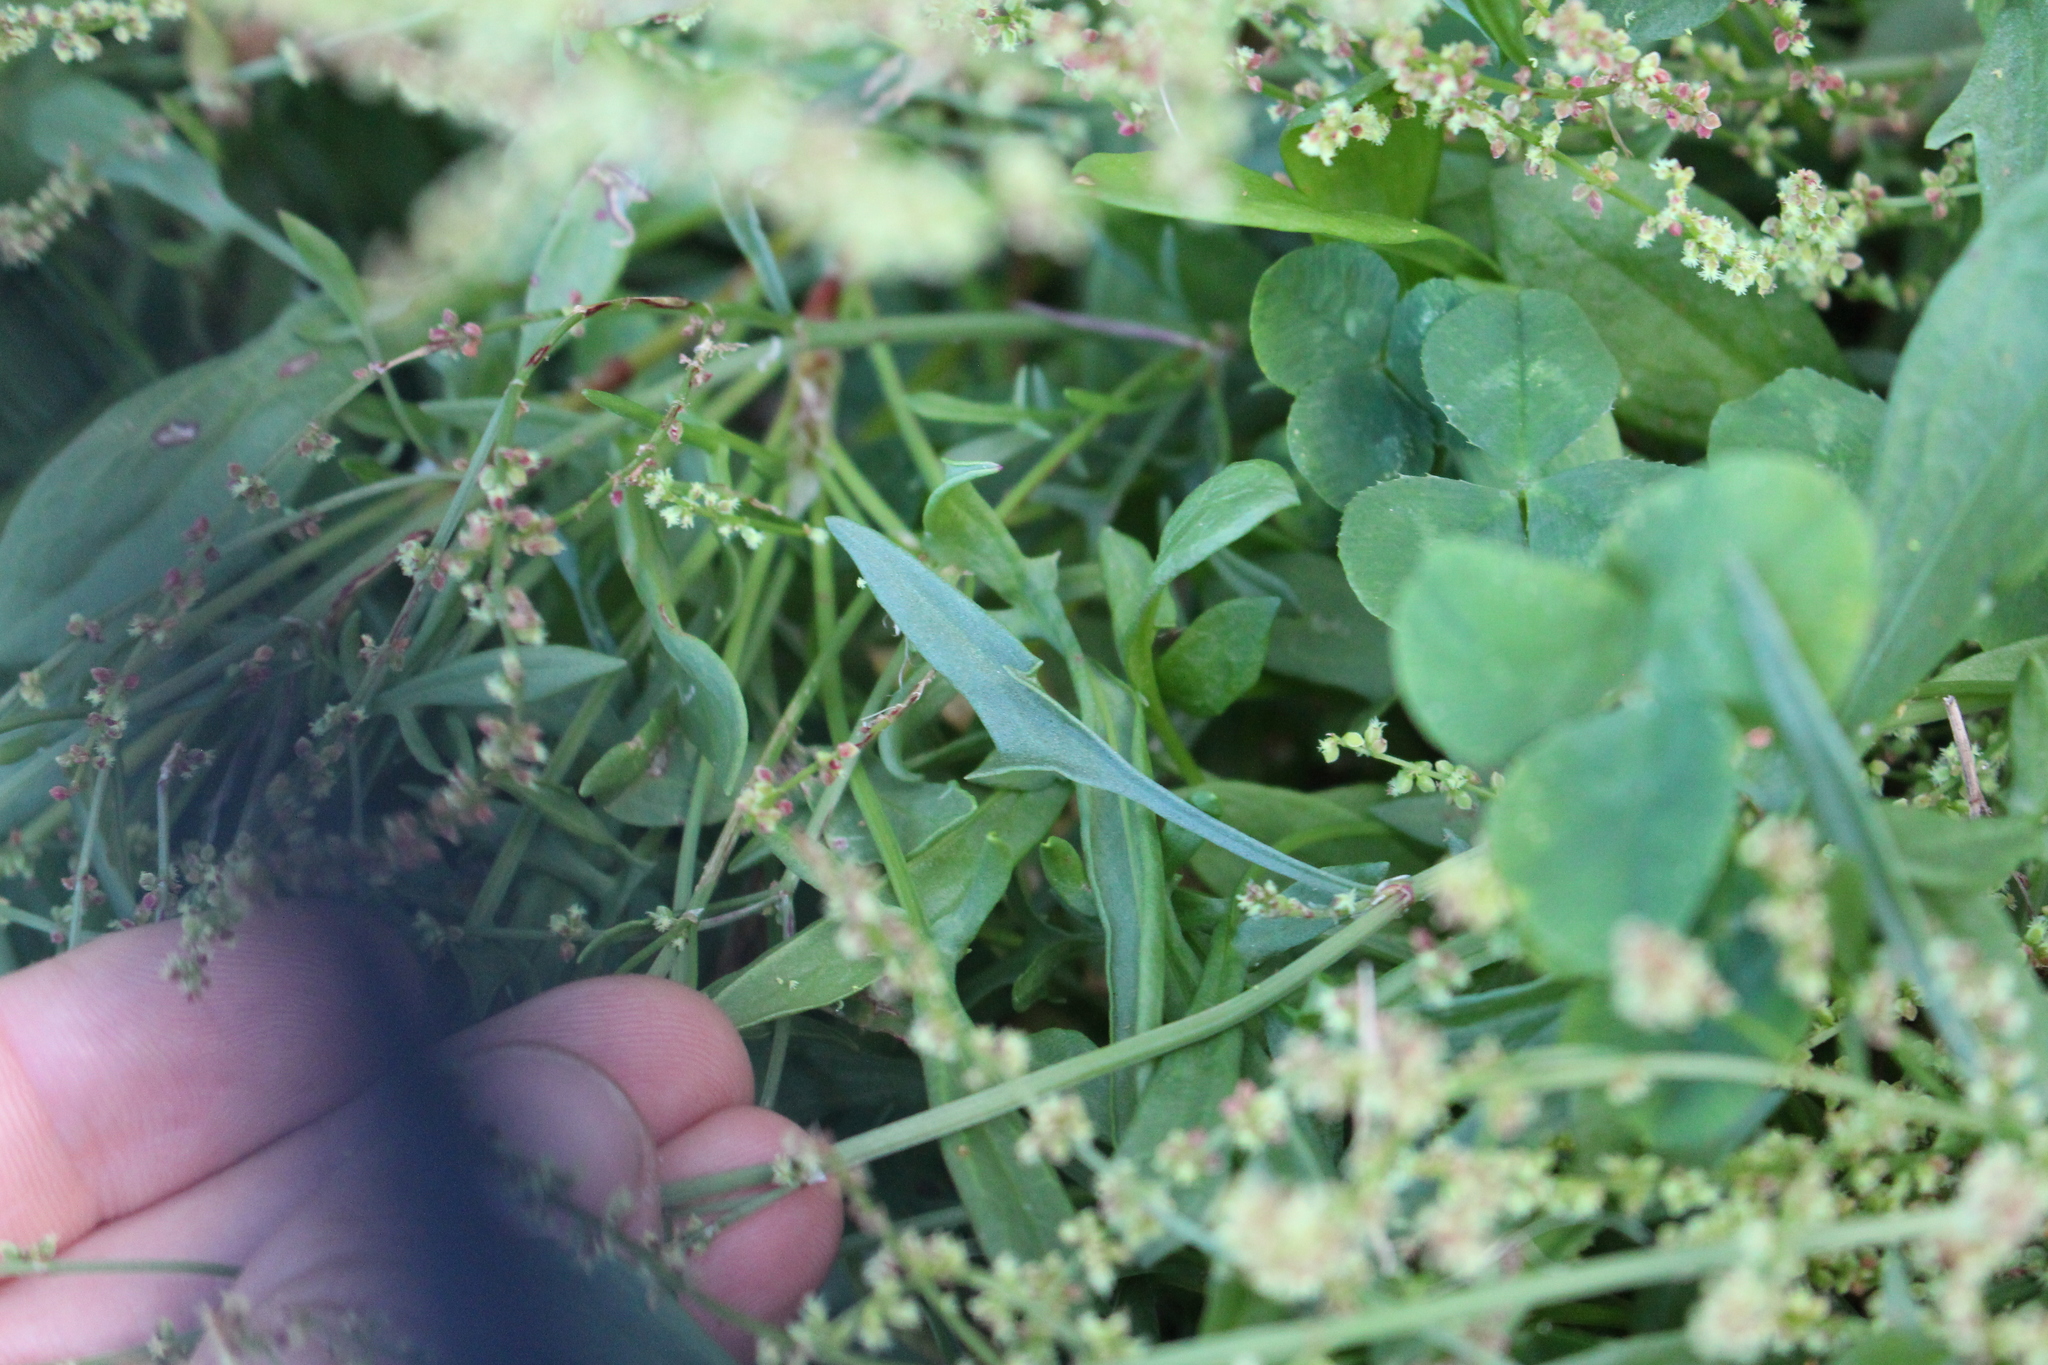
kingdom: Plantae
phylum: Tracheophyta
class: Magnoliopsida
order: Caryophyllales
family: Polygonaceae
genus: Rumex
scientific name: Rumex acetosella
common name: Common sheep sorrel
